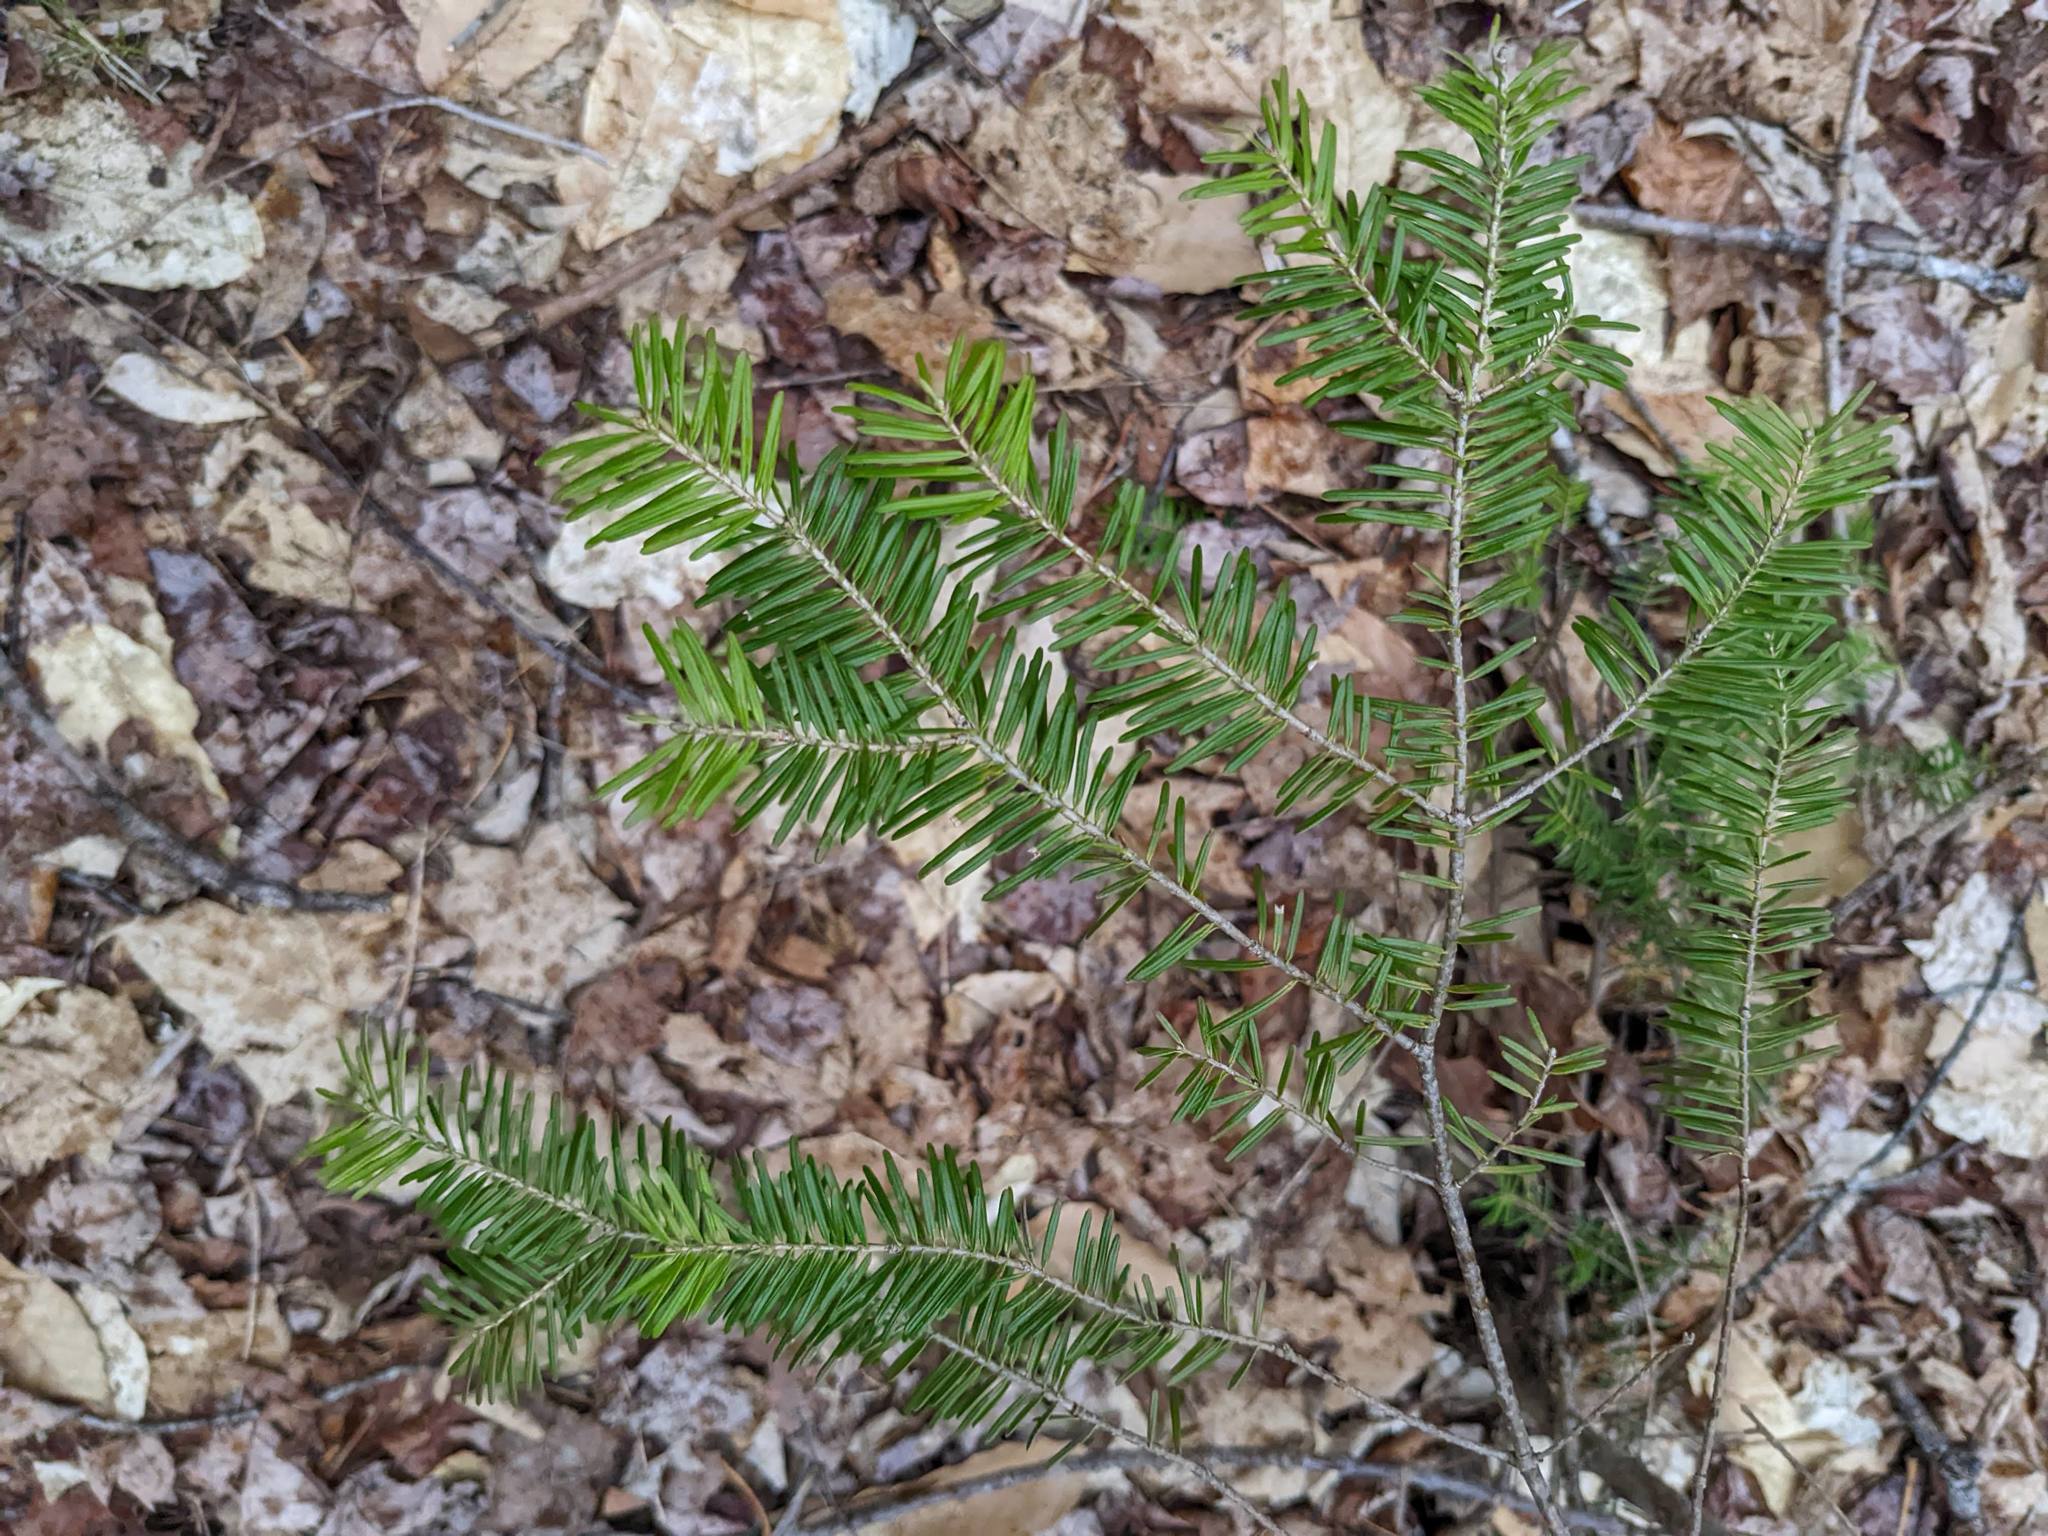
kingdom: Plantae
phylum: Tracheophyta
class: Pinopsida
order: Pinales
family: Pinaceae
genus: Abies
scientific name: Abies balsamea
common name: Balsam fir
